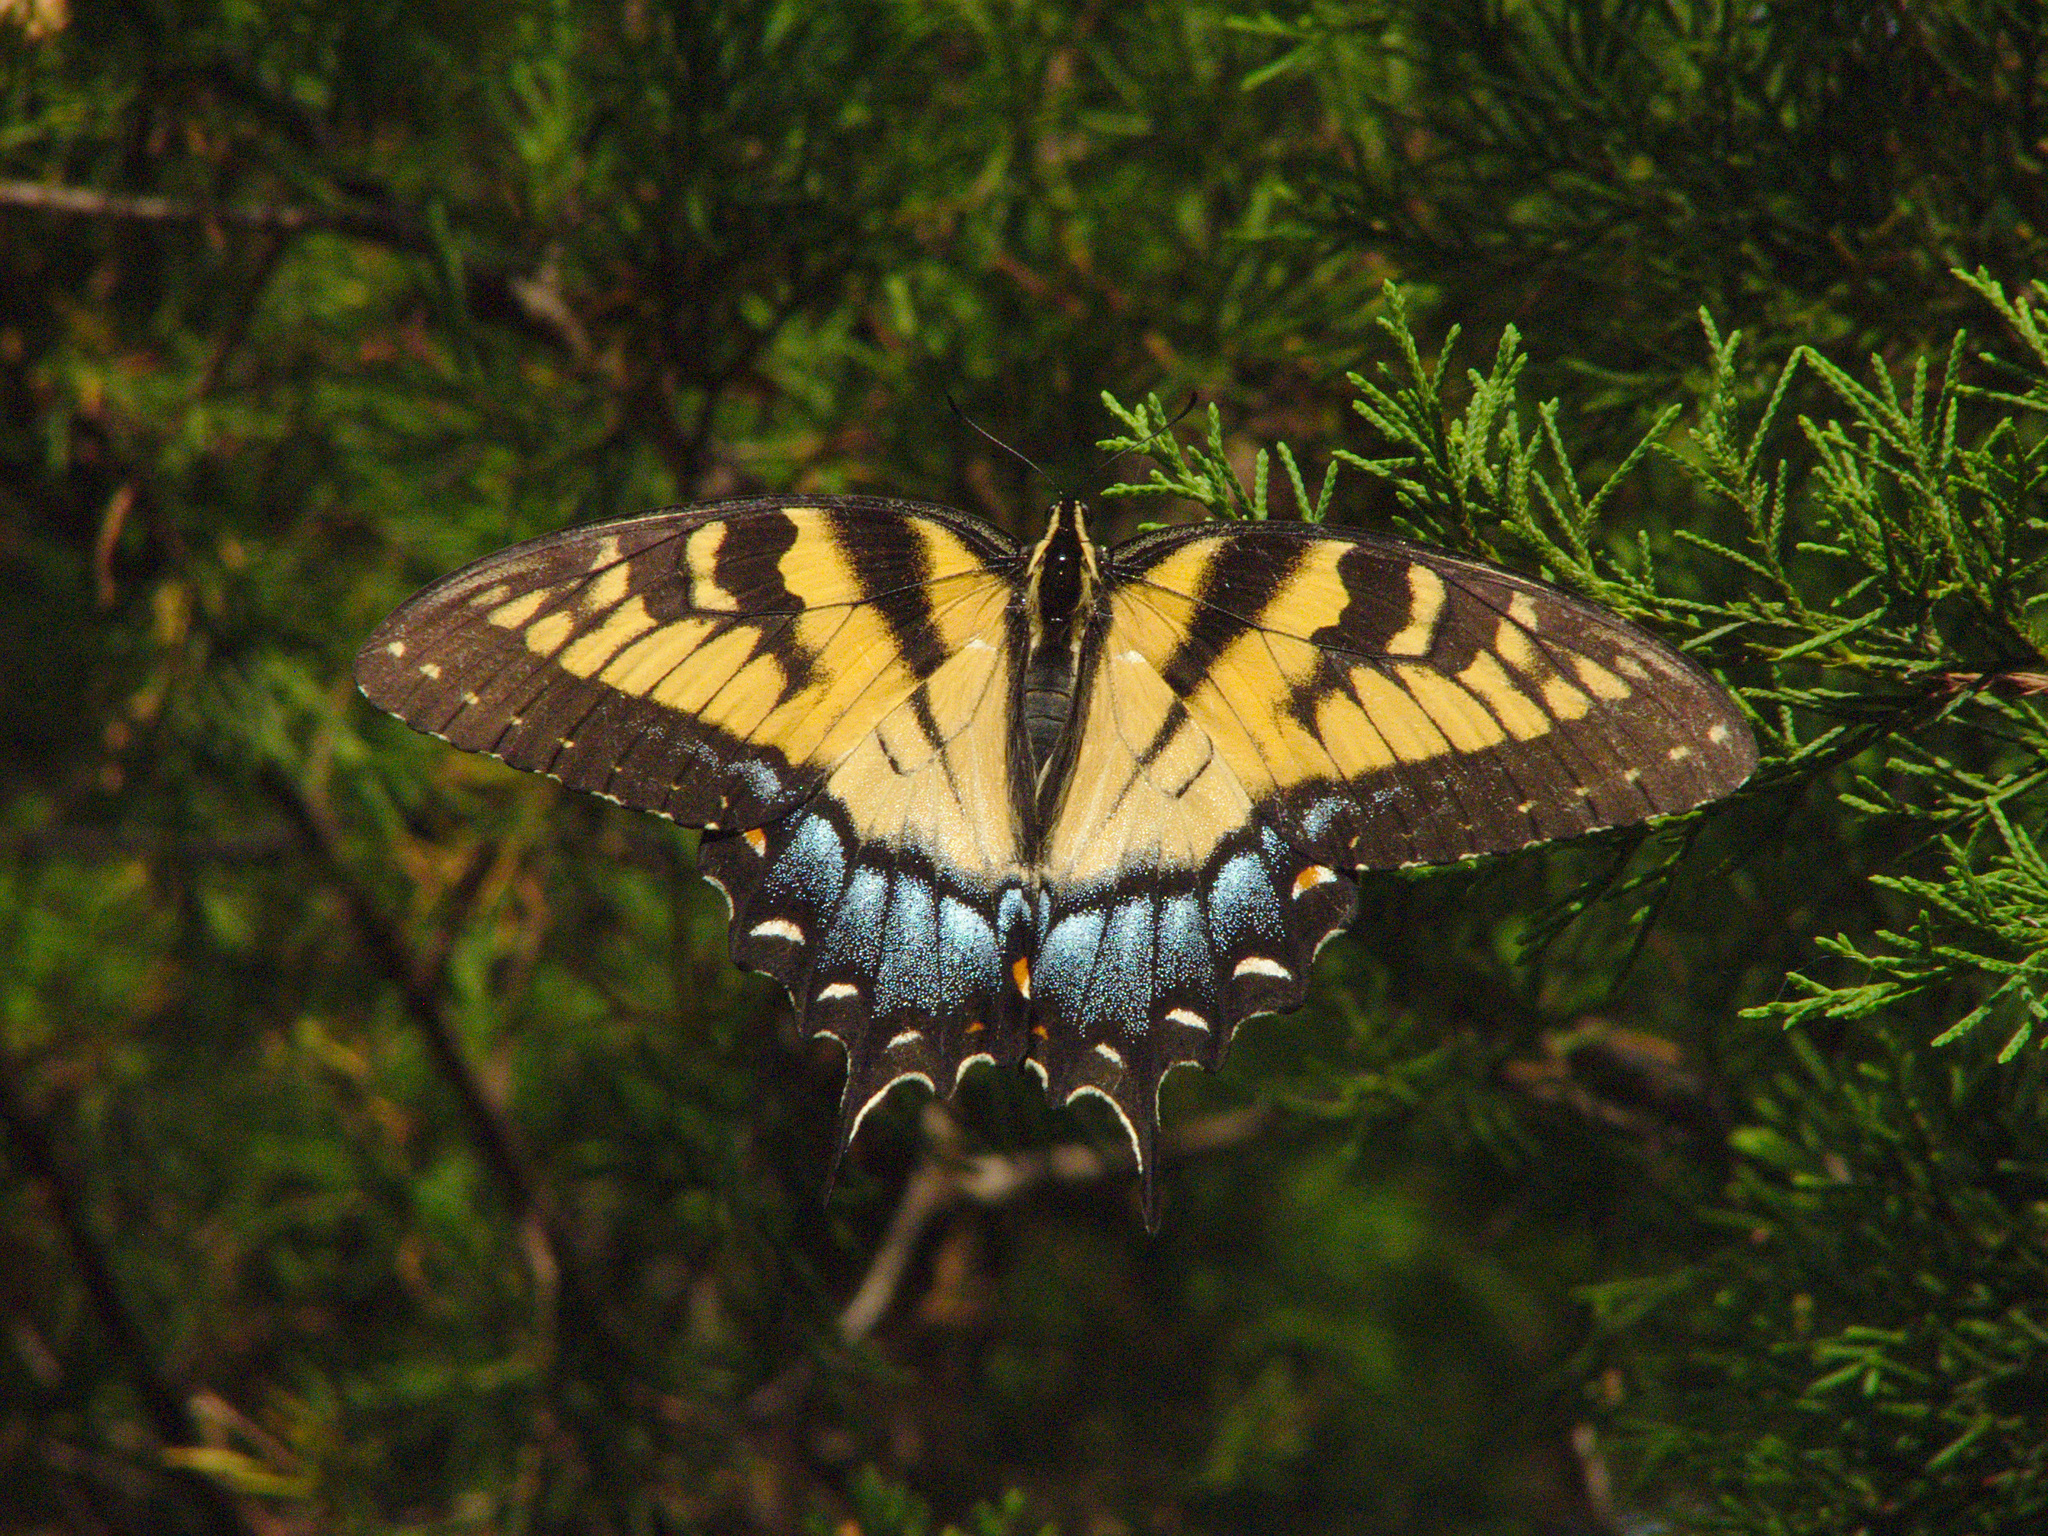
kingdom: Animalia
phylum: Arthropoda
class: Insecta
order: Lepidoptera
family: Papilionidae
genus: Papilio
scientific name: Papilio glaucus
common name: Tiger swallowtail
